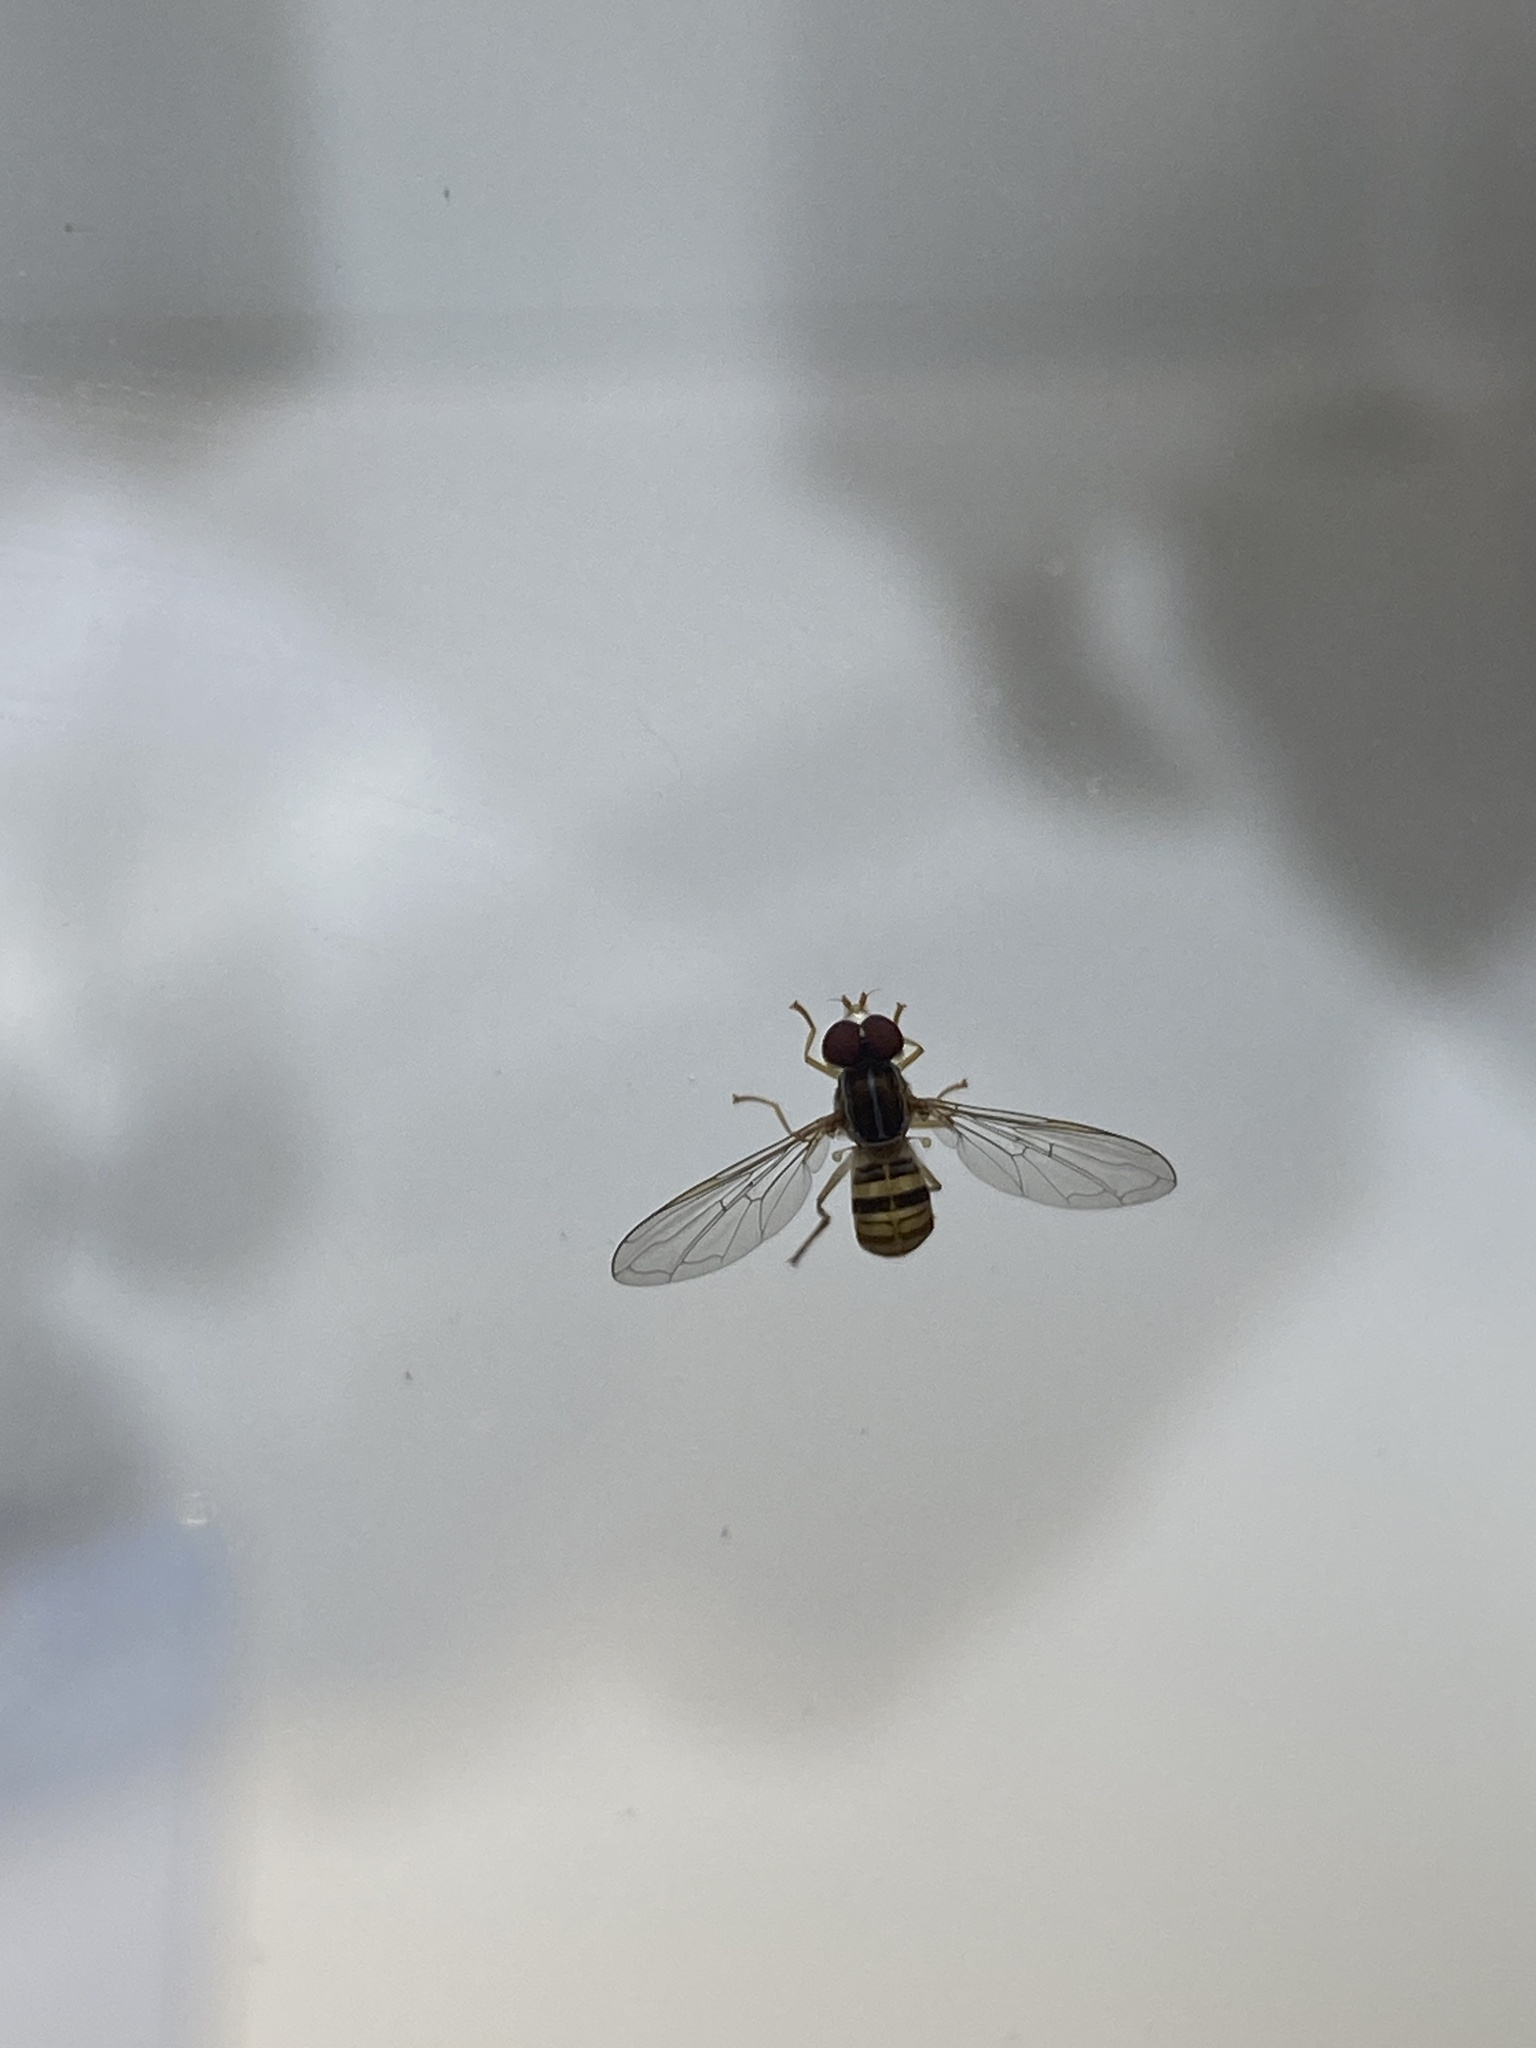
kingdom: Animalia
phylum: Arthropoda
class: Insecta
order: Diptera
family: Syrphidae
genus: Toxomerus
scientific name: Toxomerus politus
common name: Maize calligrapher
